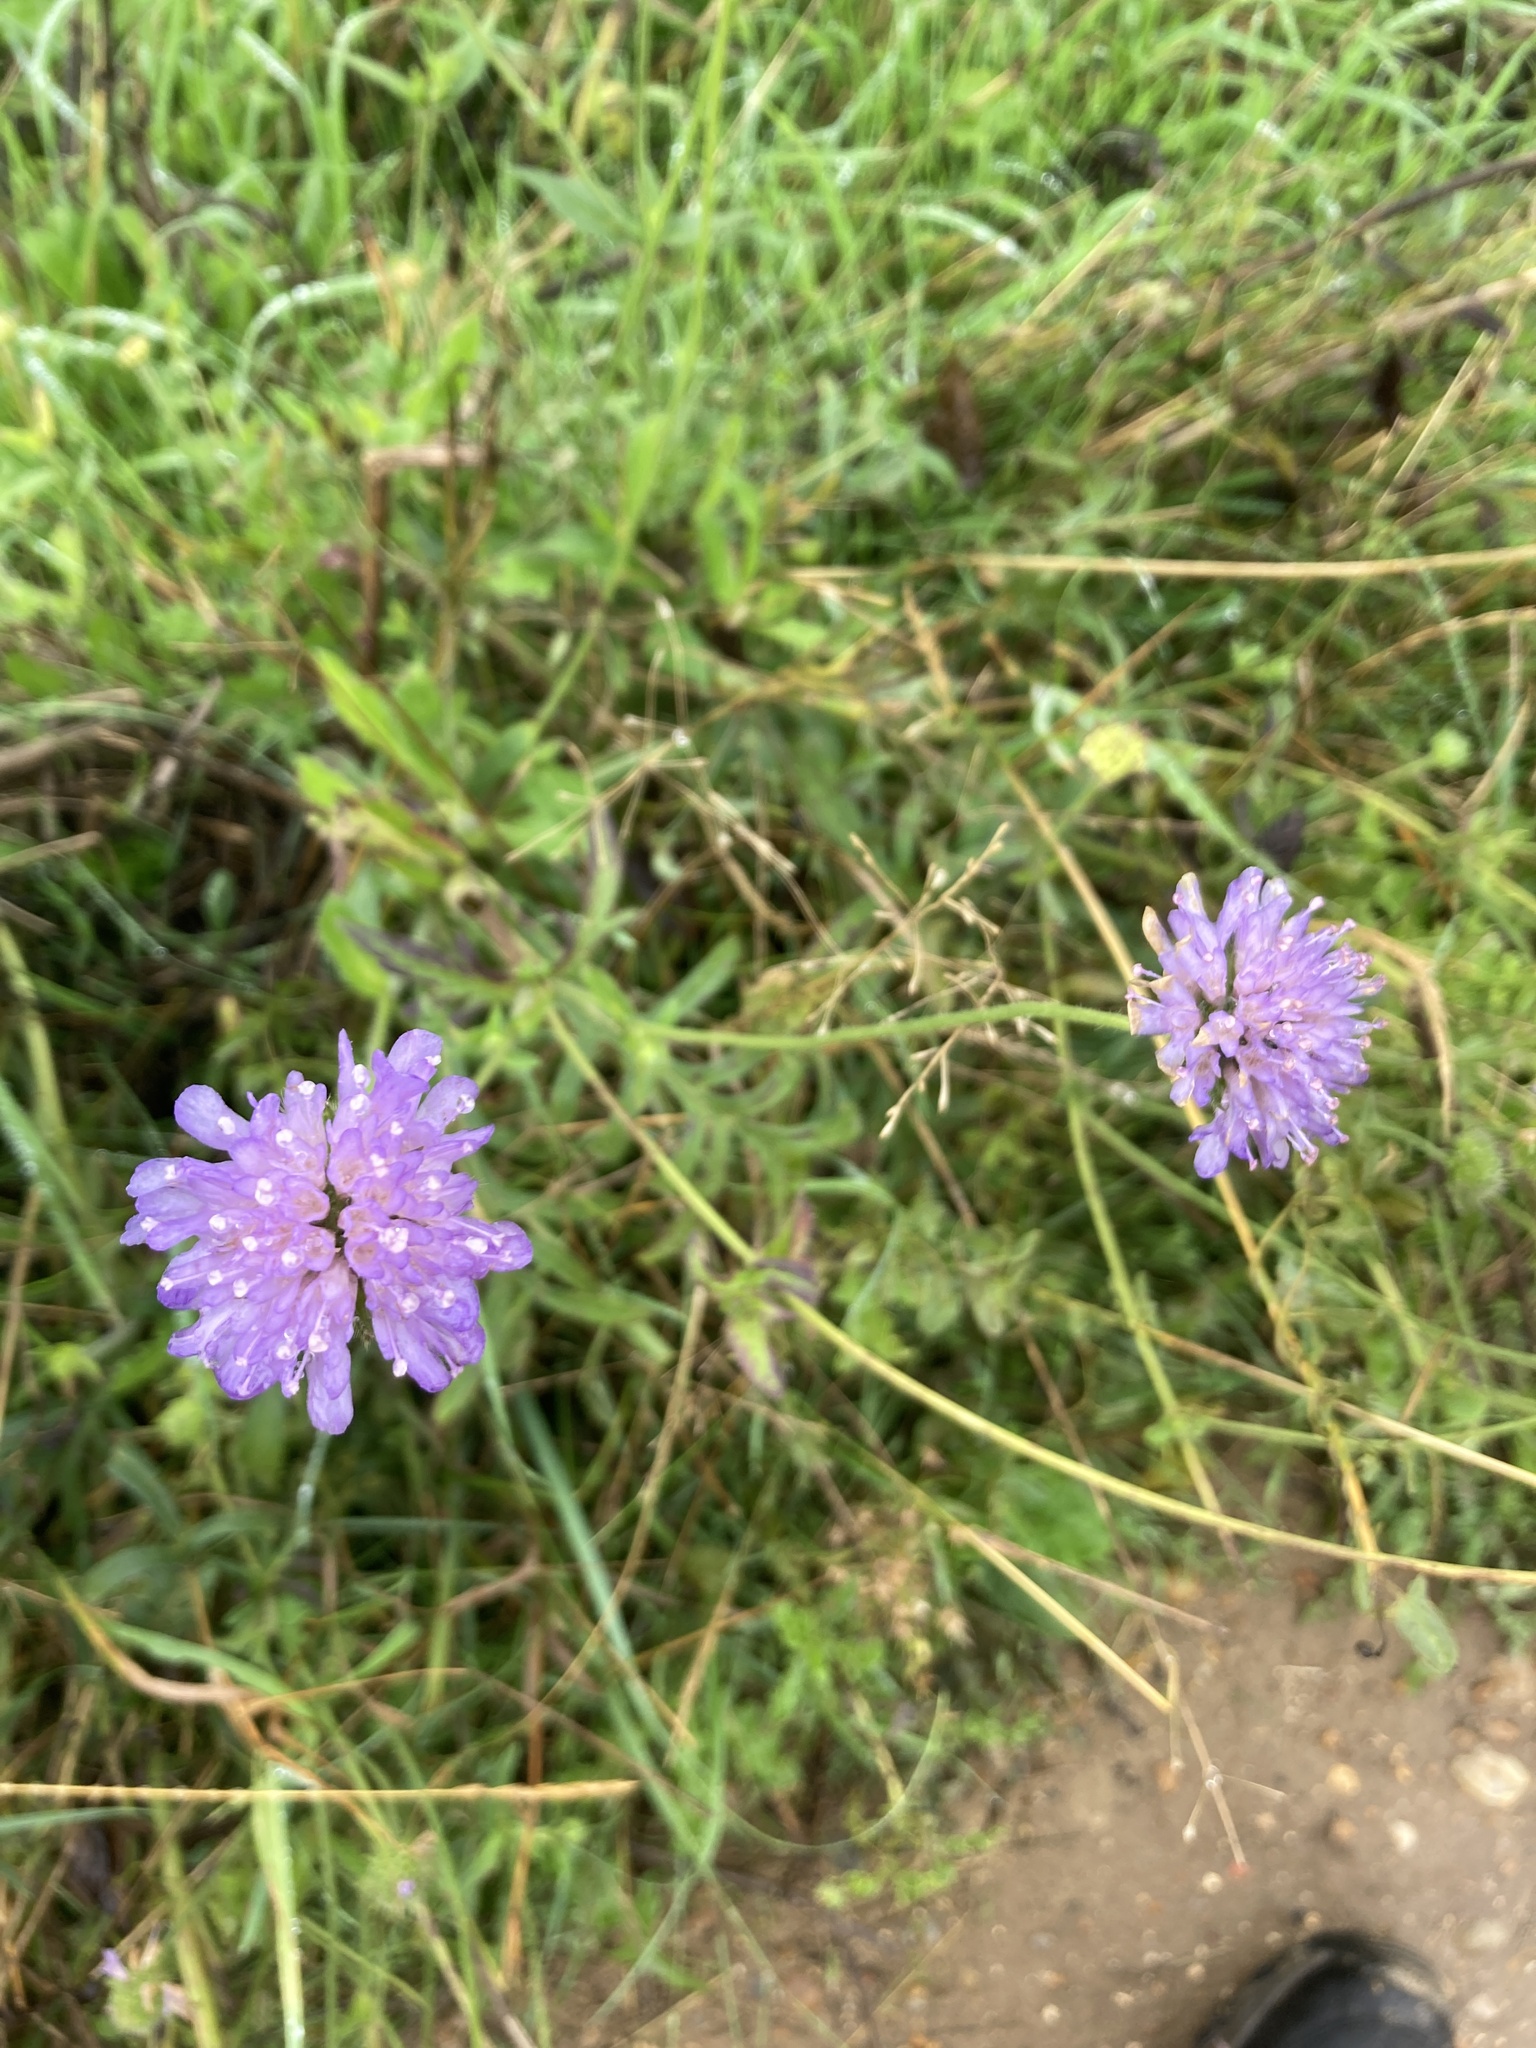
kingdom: Plantae
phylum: Tracheophyta
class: Magnoliopsida
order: Dipsacales
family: Caprifoliaceae
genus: Knautia
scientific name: Knautia arvensis
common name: Field scabiosa
